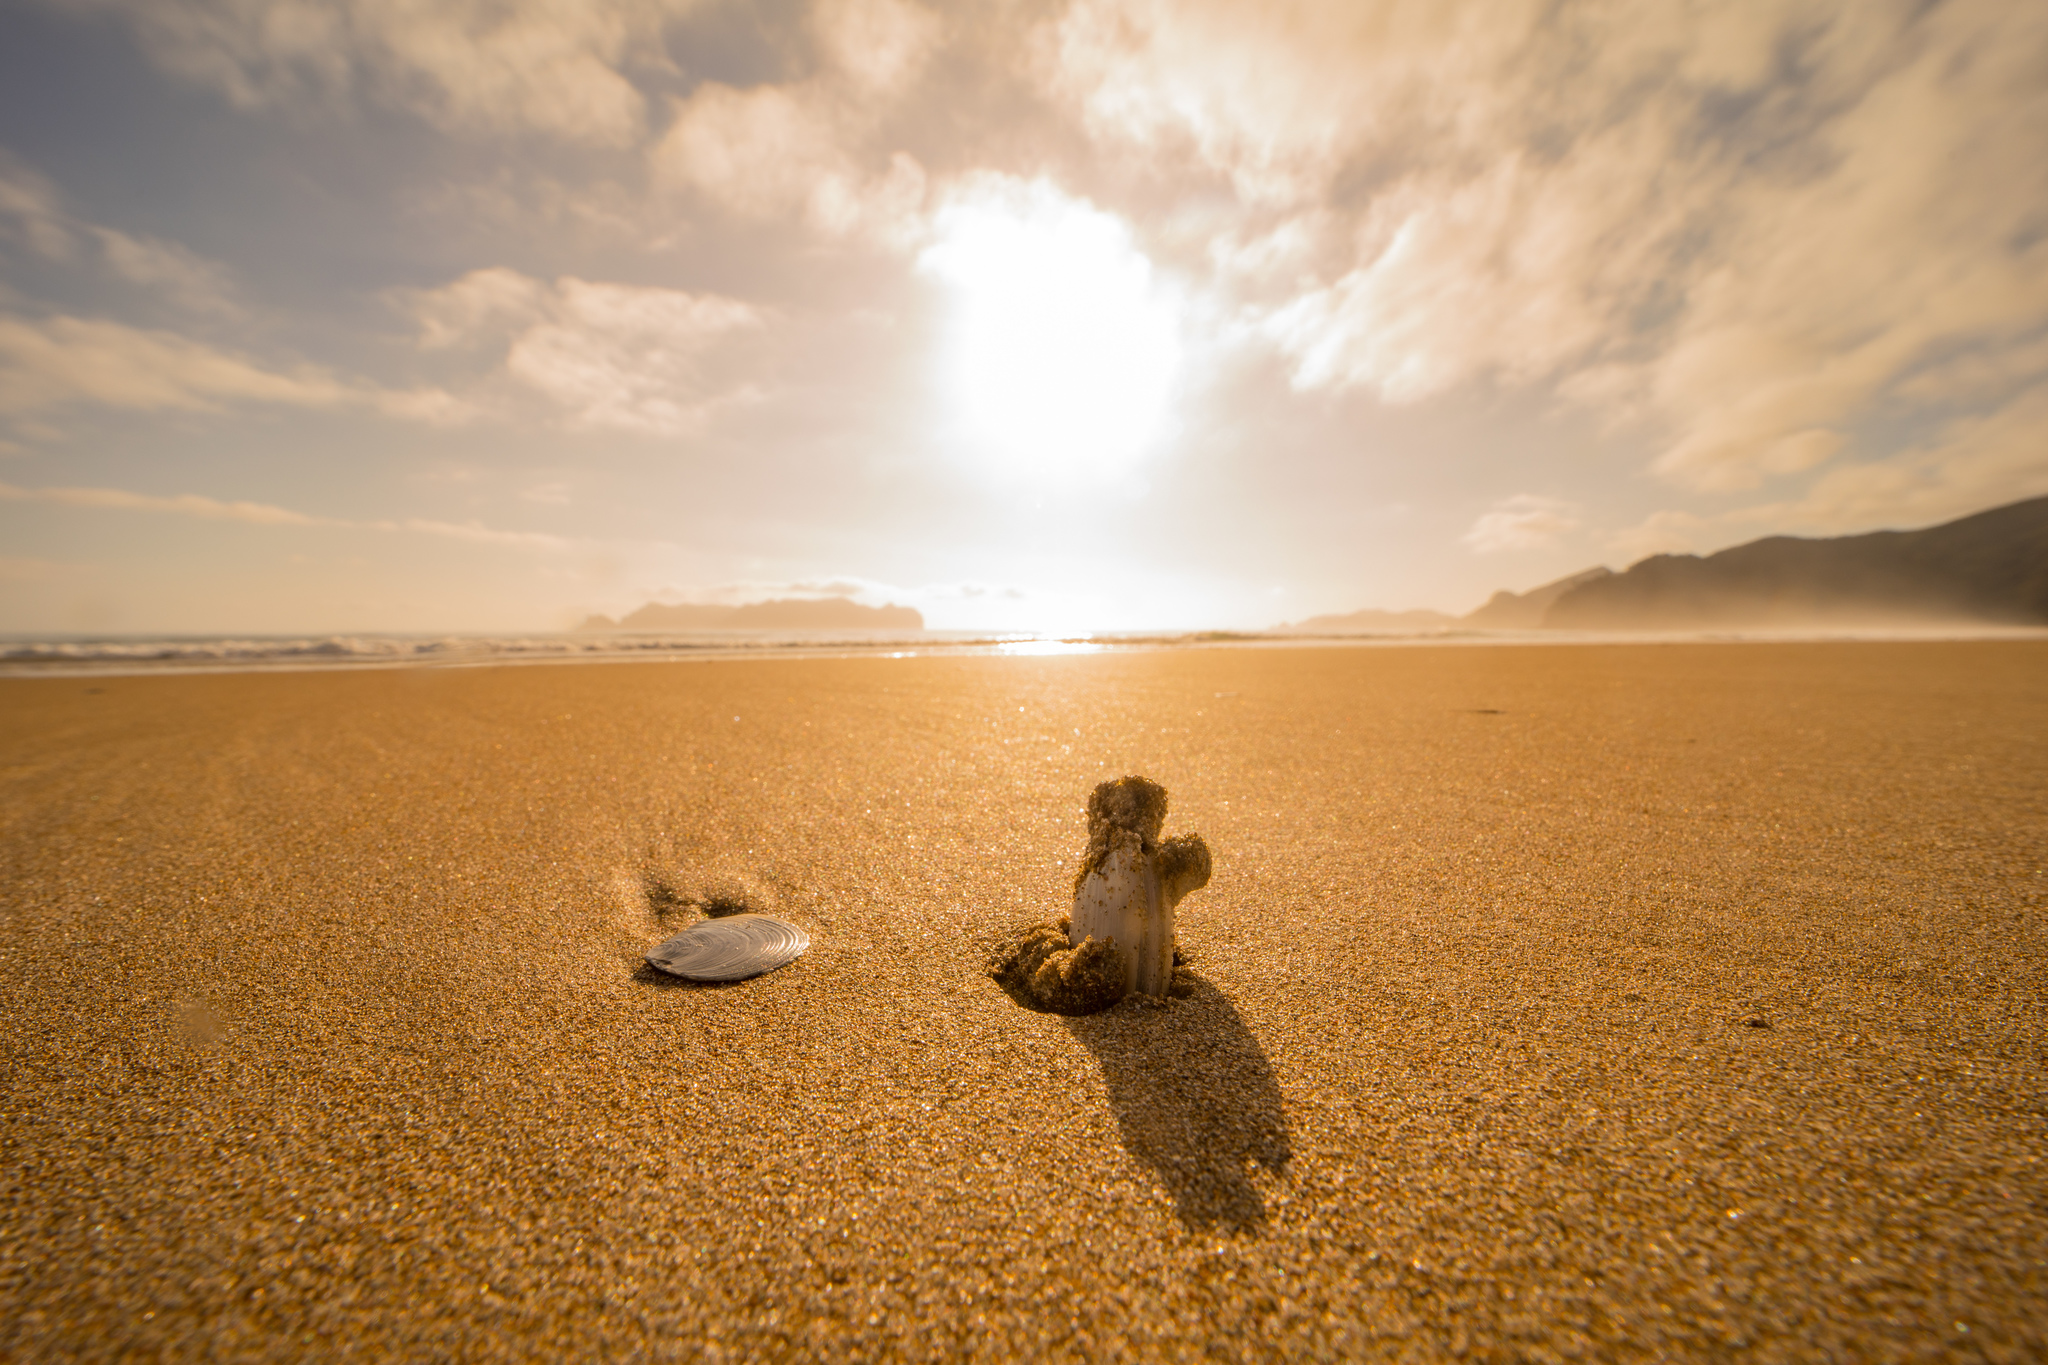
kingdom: Animalia
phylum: Mollusca
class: Bivalvia
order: Venerida
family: Mesodesmatidae
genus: Paphies
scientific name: Paphies subtriangulata
